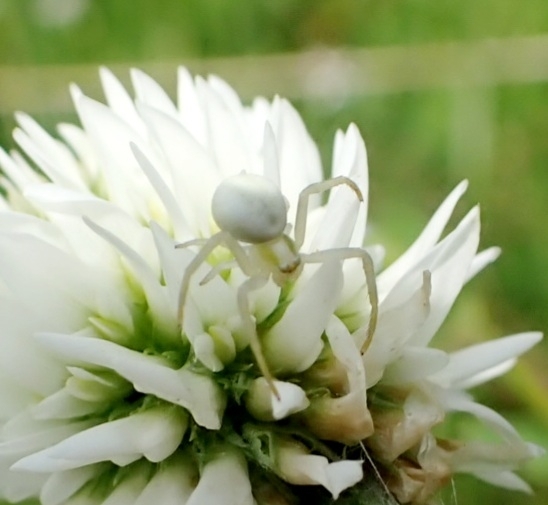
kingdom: Animalia
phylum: Arthropoda
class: Arachnida
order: Araneae
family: Thomisidae
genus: Misumena
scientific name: Misumena vatia
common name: Goldenrod crab spider
